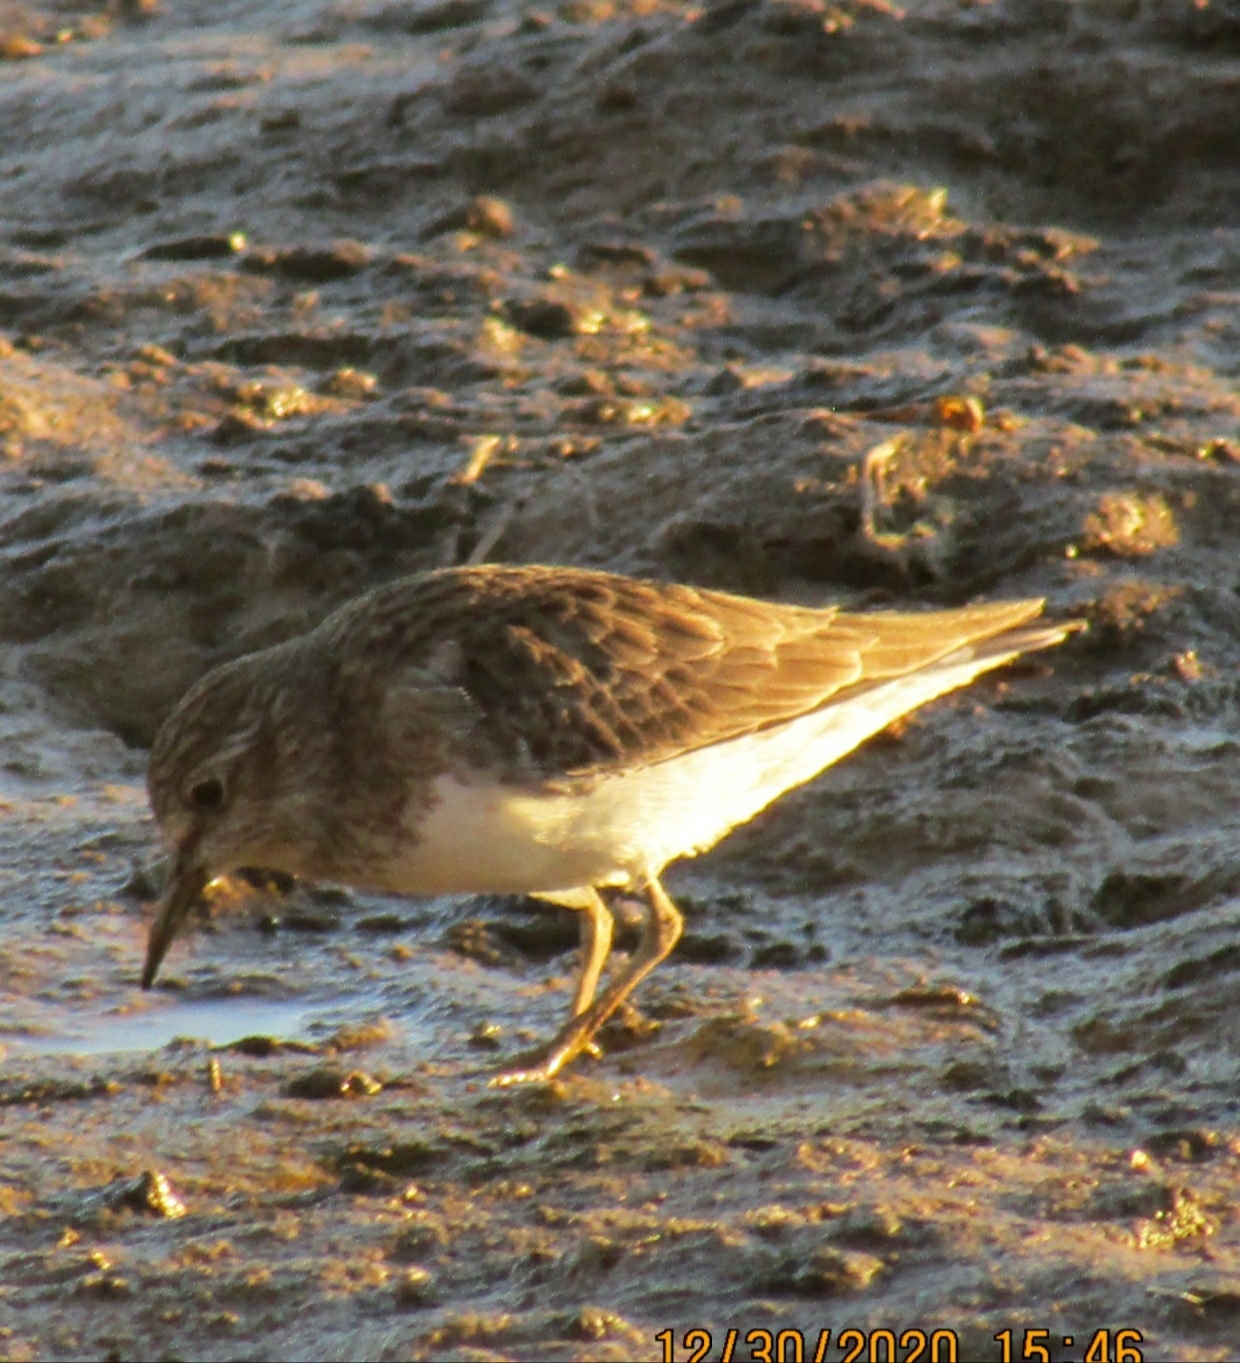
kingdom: Animalia
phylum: Chordata
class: Aves
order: Charadriiformes
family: Scolopacidae
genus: Calidris
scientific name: Calidris minutilla
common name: Least sandpiper
